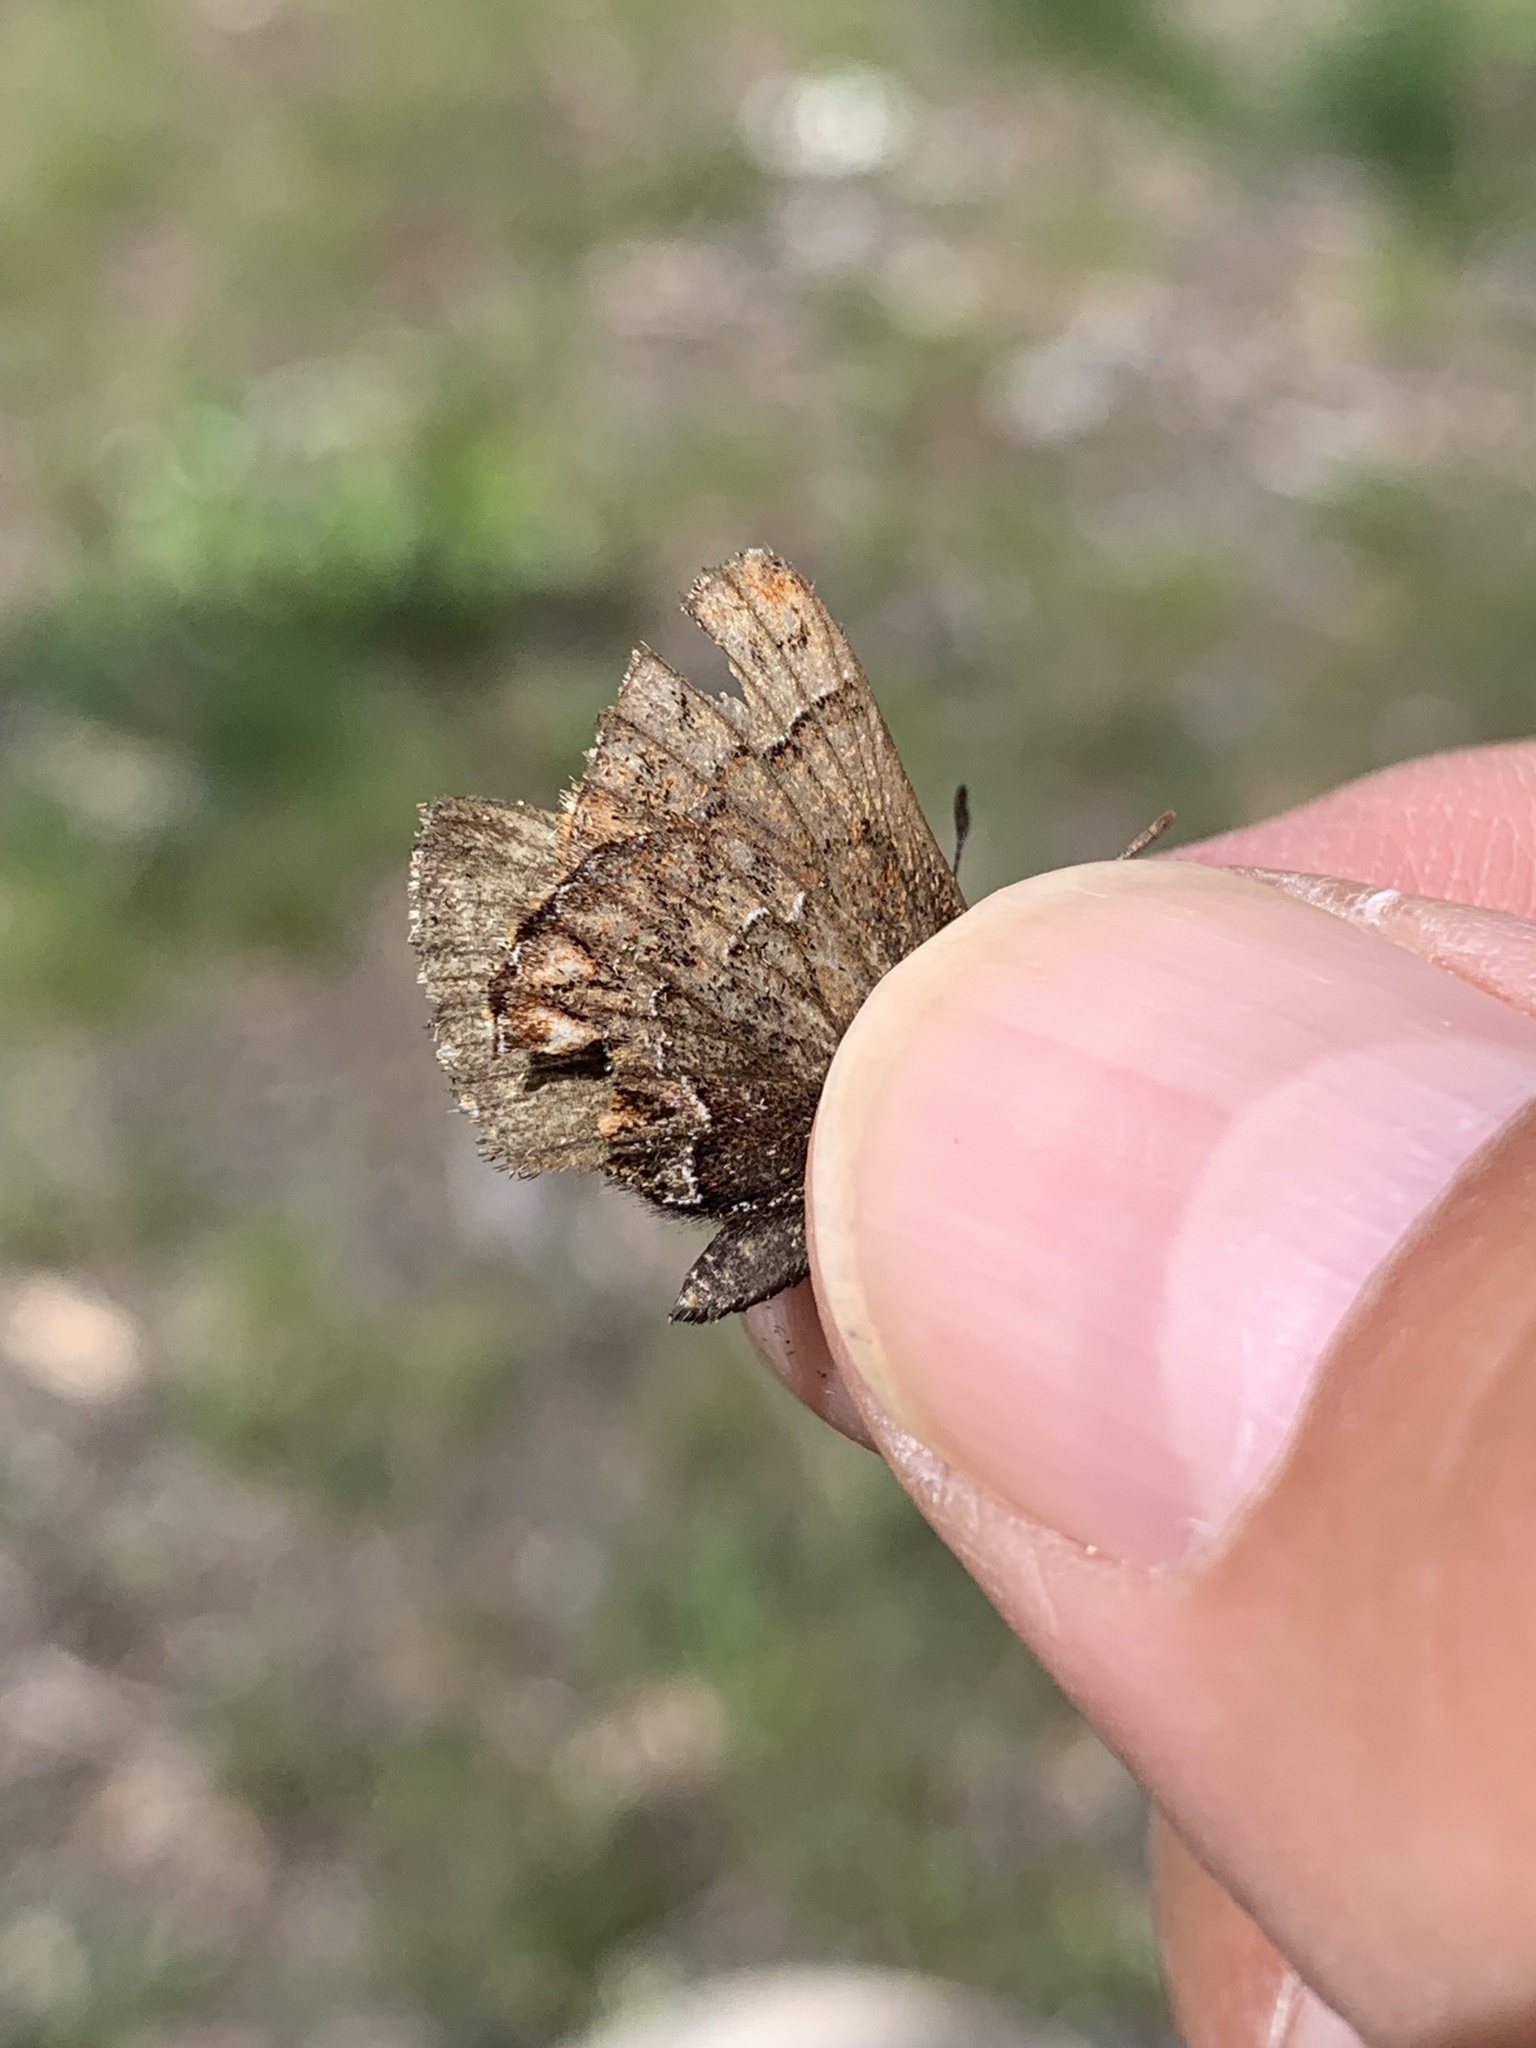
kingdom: Animalia
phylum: Arthropoda
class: Insecta
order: Lepidoptera
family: Lycaenidae
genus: Incisalia
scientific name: Incisalia eryphon
